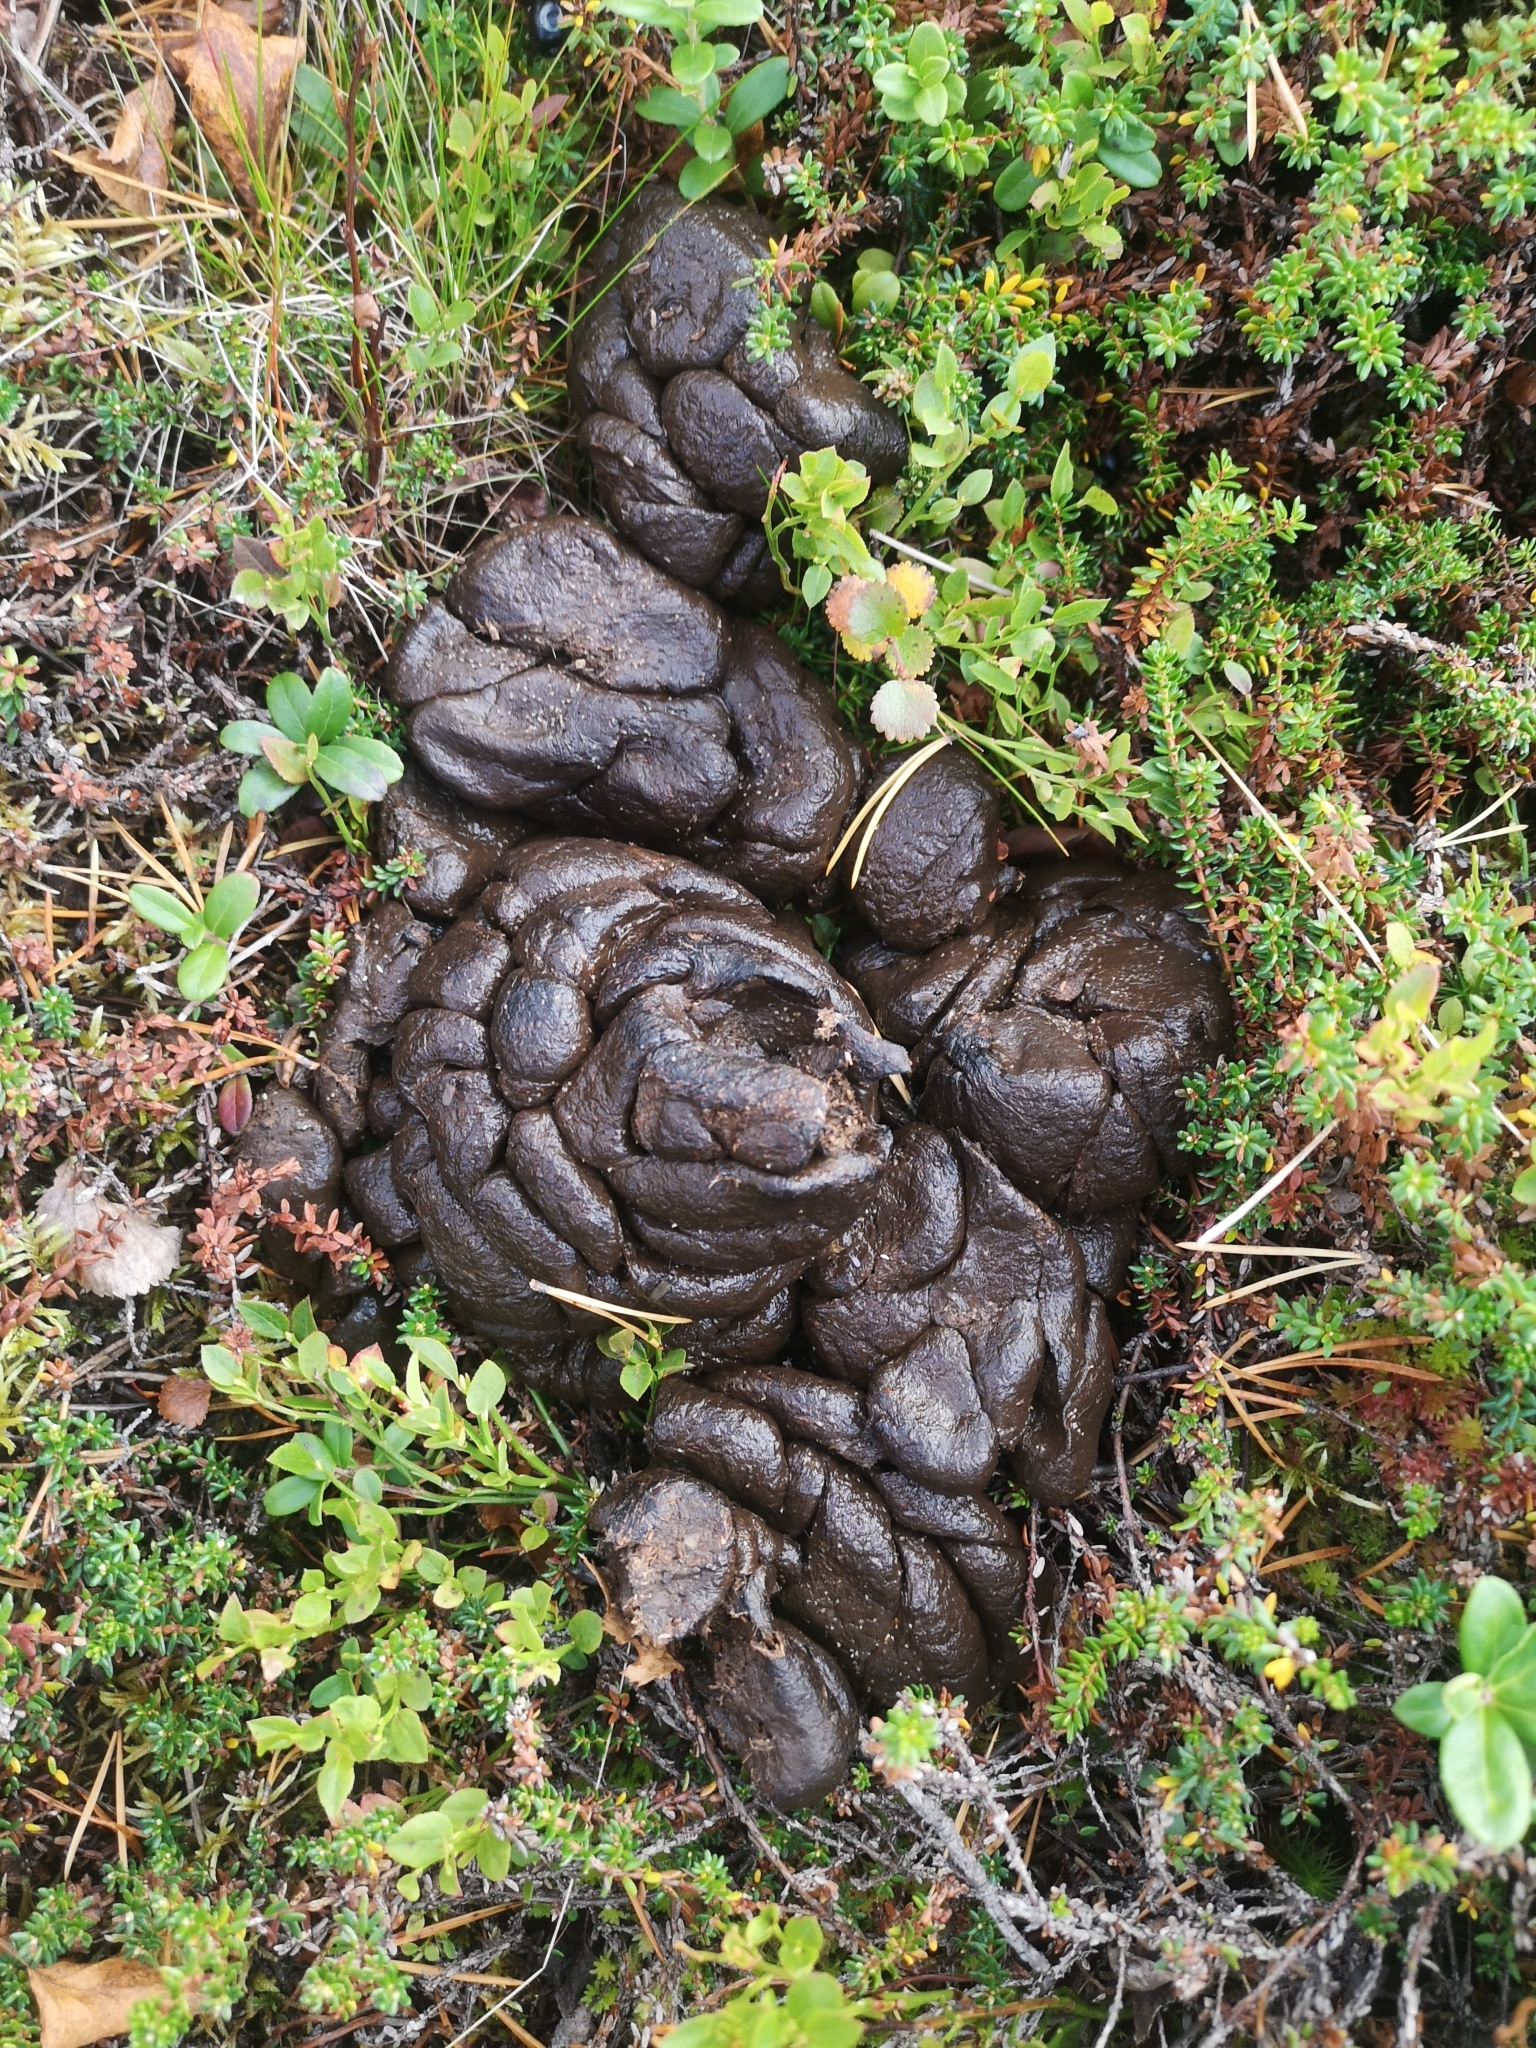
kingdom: Animalia
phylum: Chordata
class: Mammalia
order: Artiodactyla
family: Cervidae
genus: Alces
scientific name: Alces alces
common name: Moose
